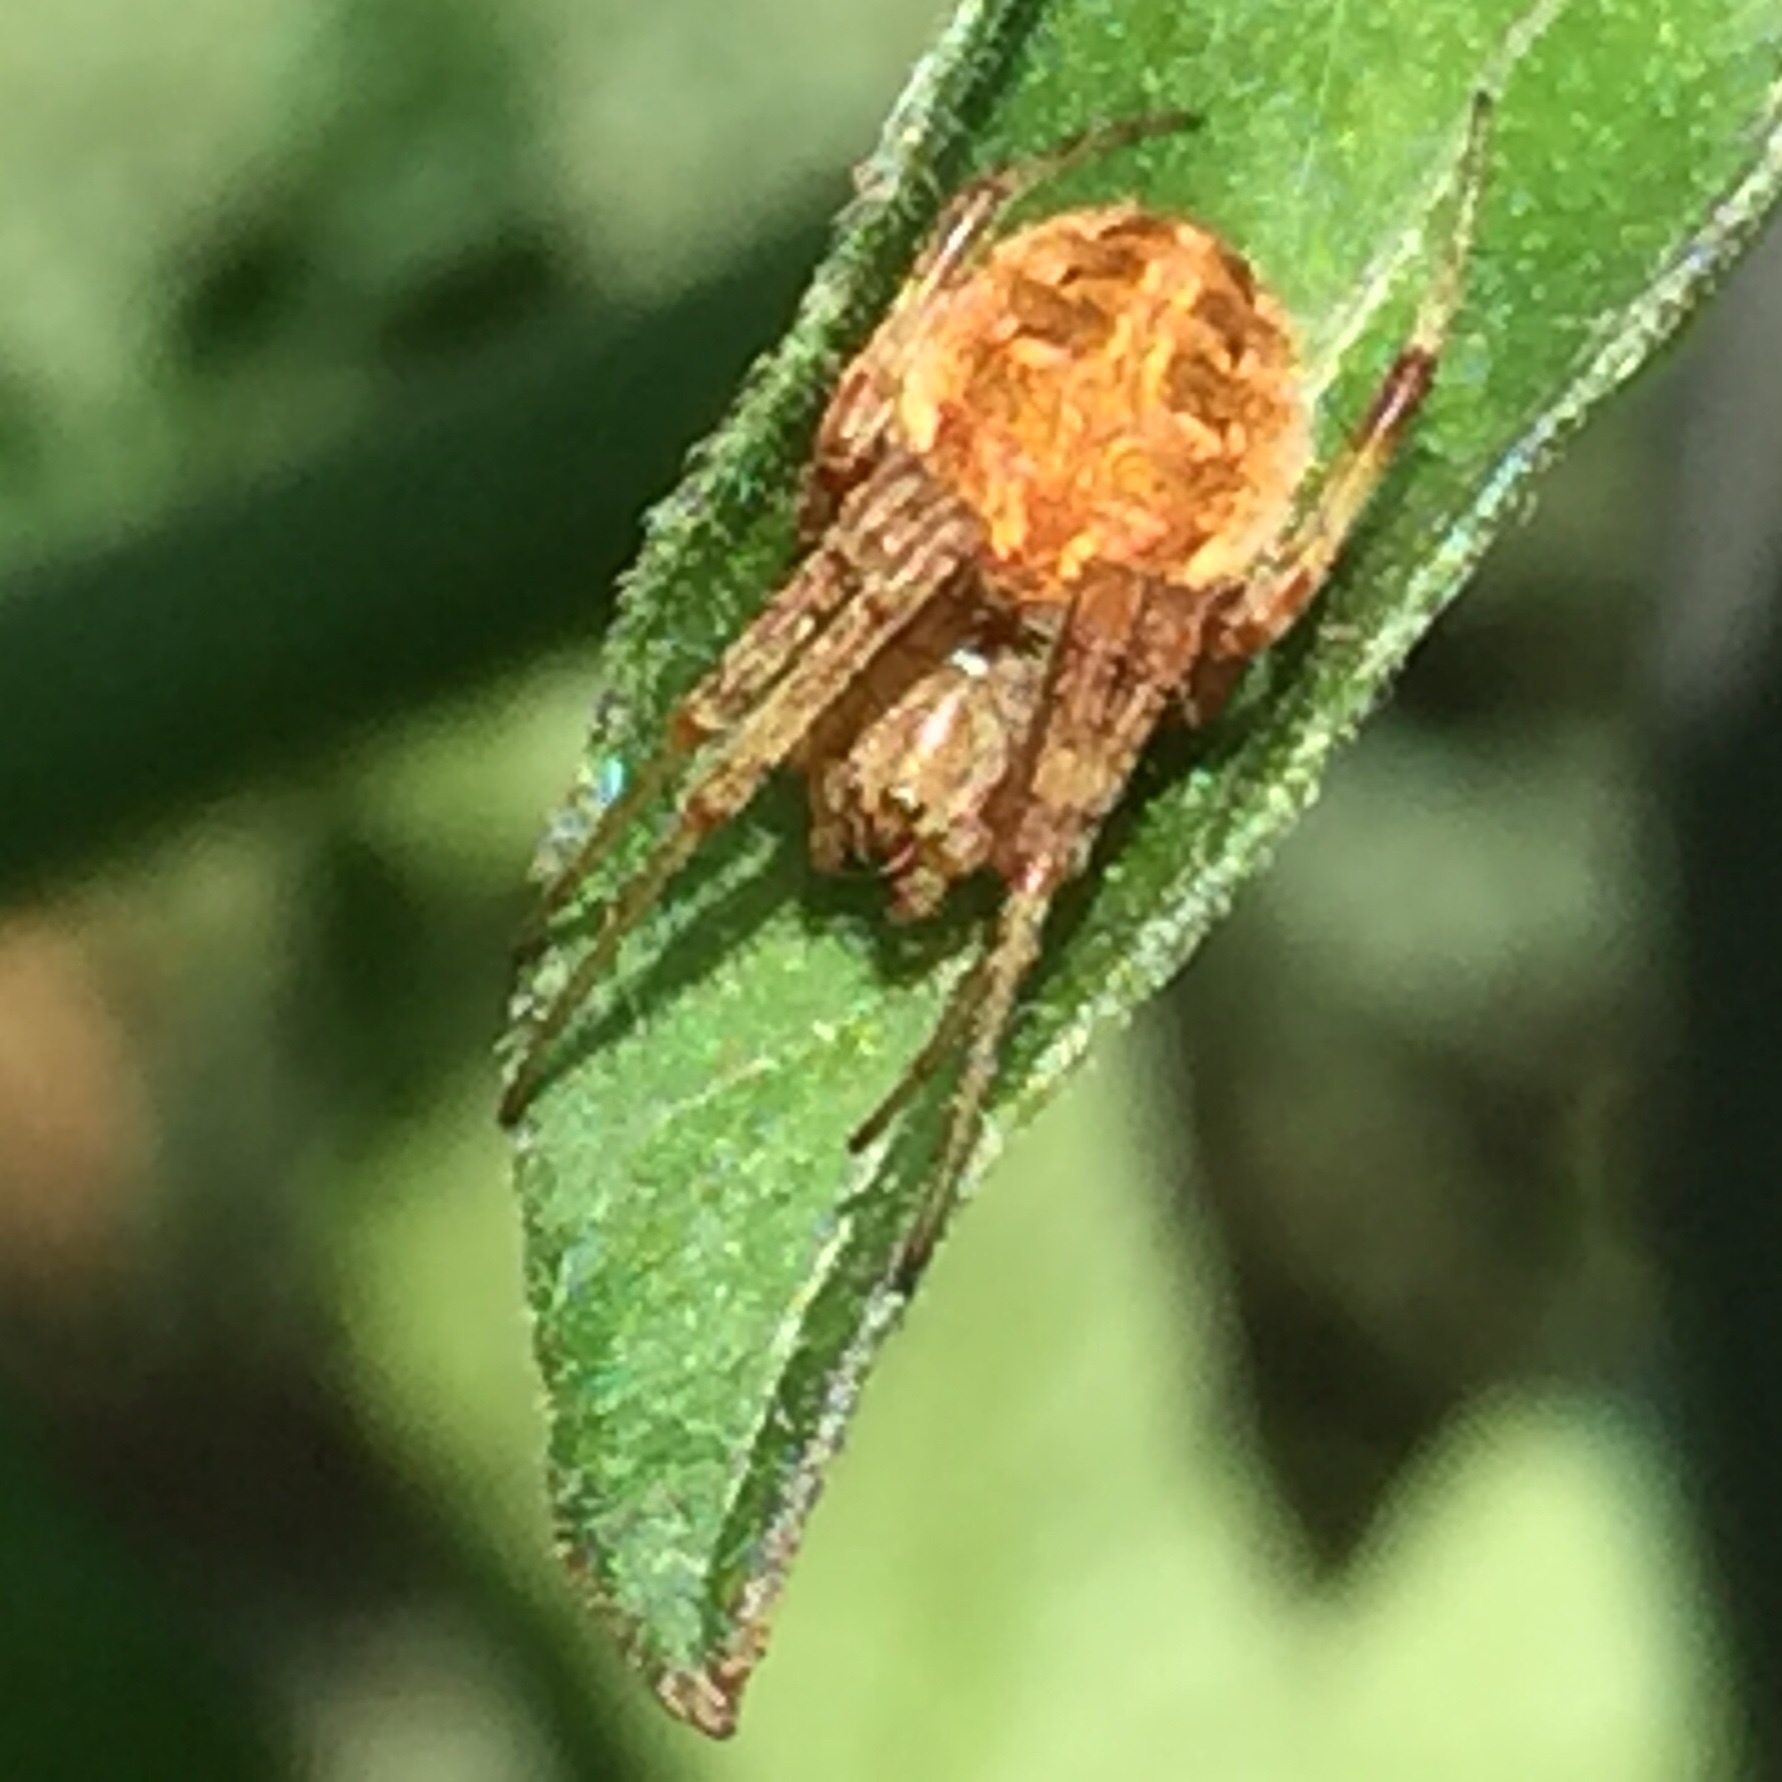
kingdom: Animalia
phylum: Arthropoda
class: Arachnida
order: Araneae
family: Araneidae
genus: Neoscona
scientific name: Neoscona arabesca
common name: Orb weavers
